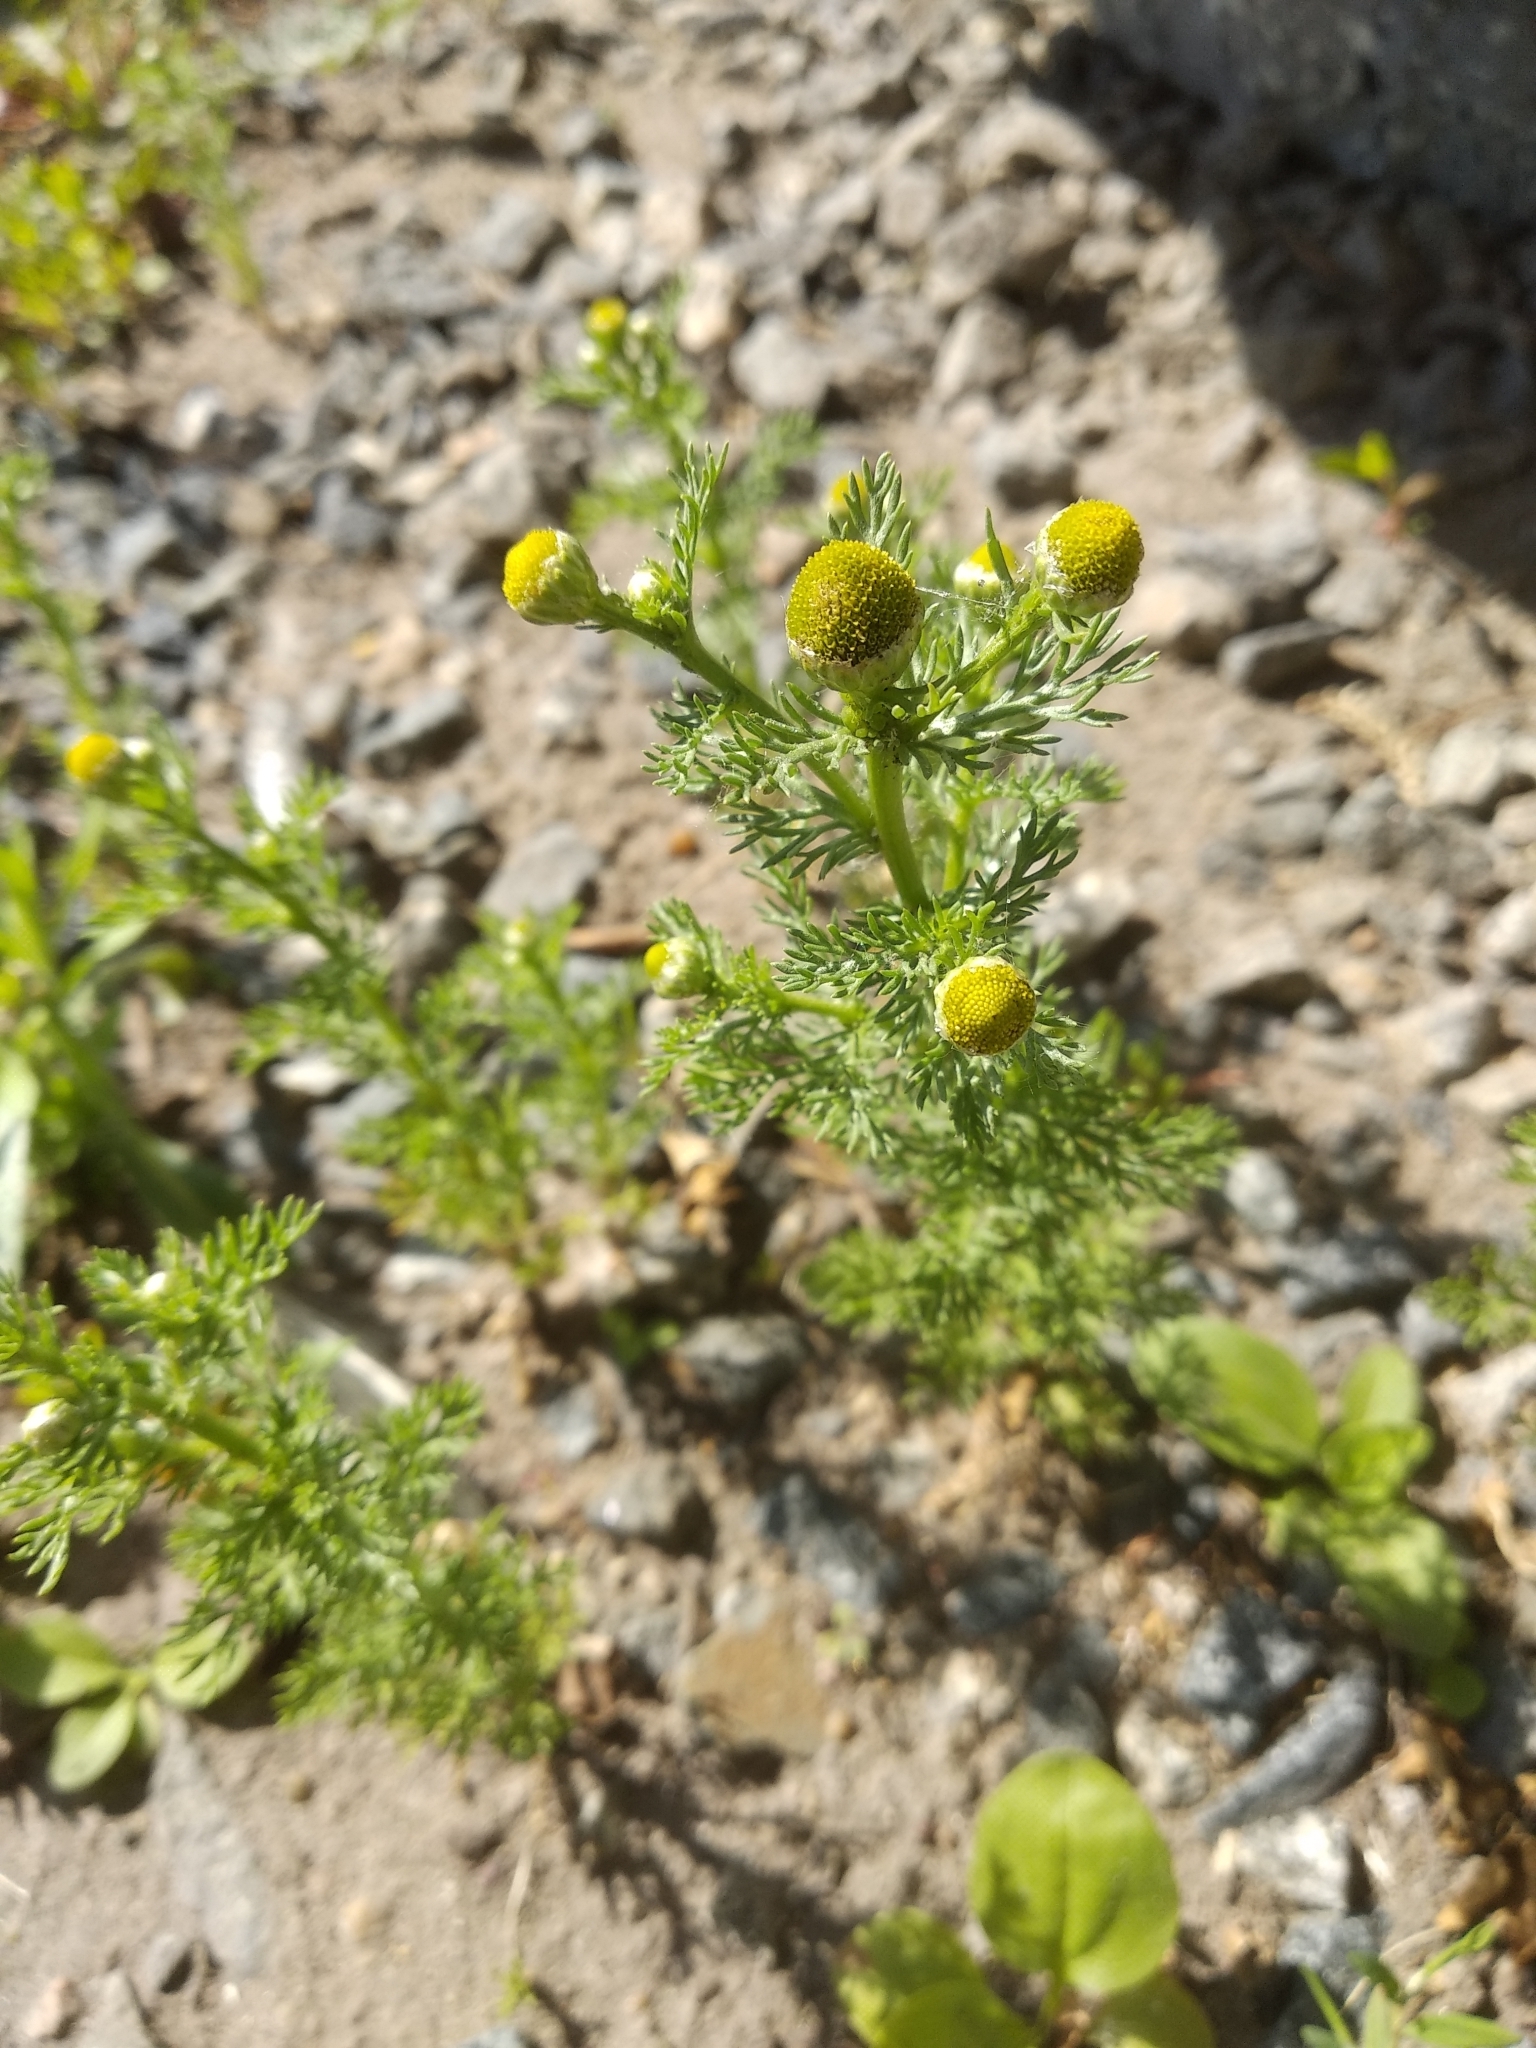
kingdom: Plantae
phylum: Tracheophyta
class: Magnoliopsida
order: Asterales
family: Asteraceae
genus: Matricaria
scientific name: Matricaria discoidea
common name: Disc mayweed
